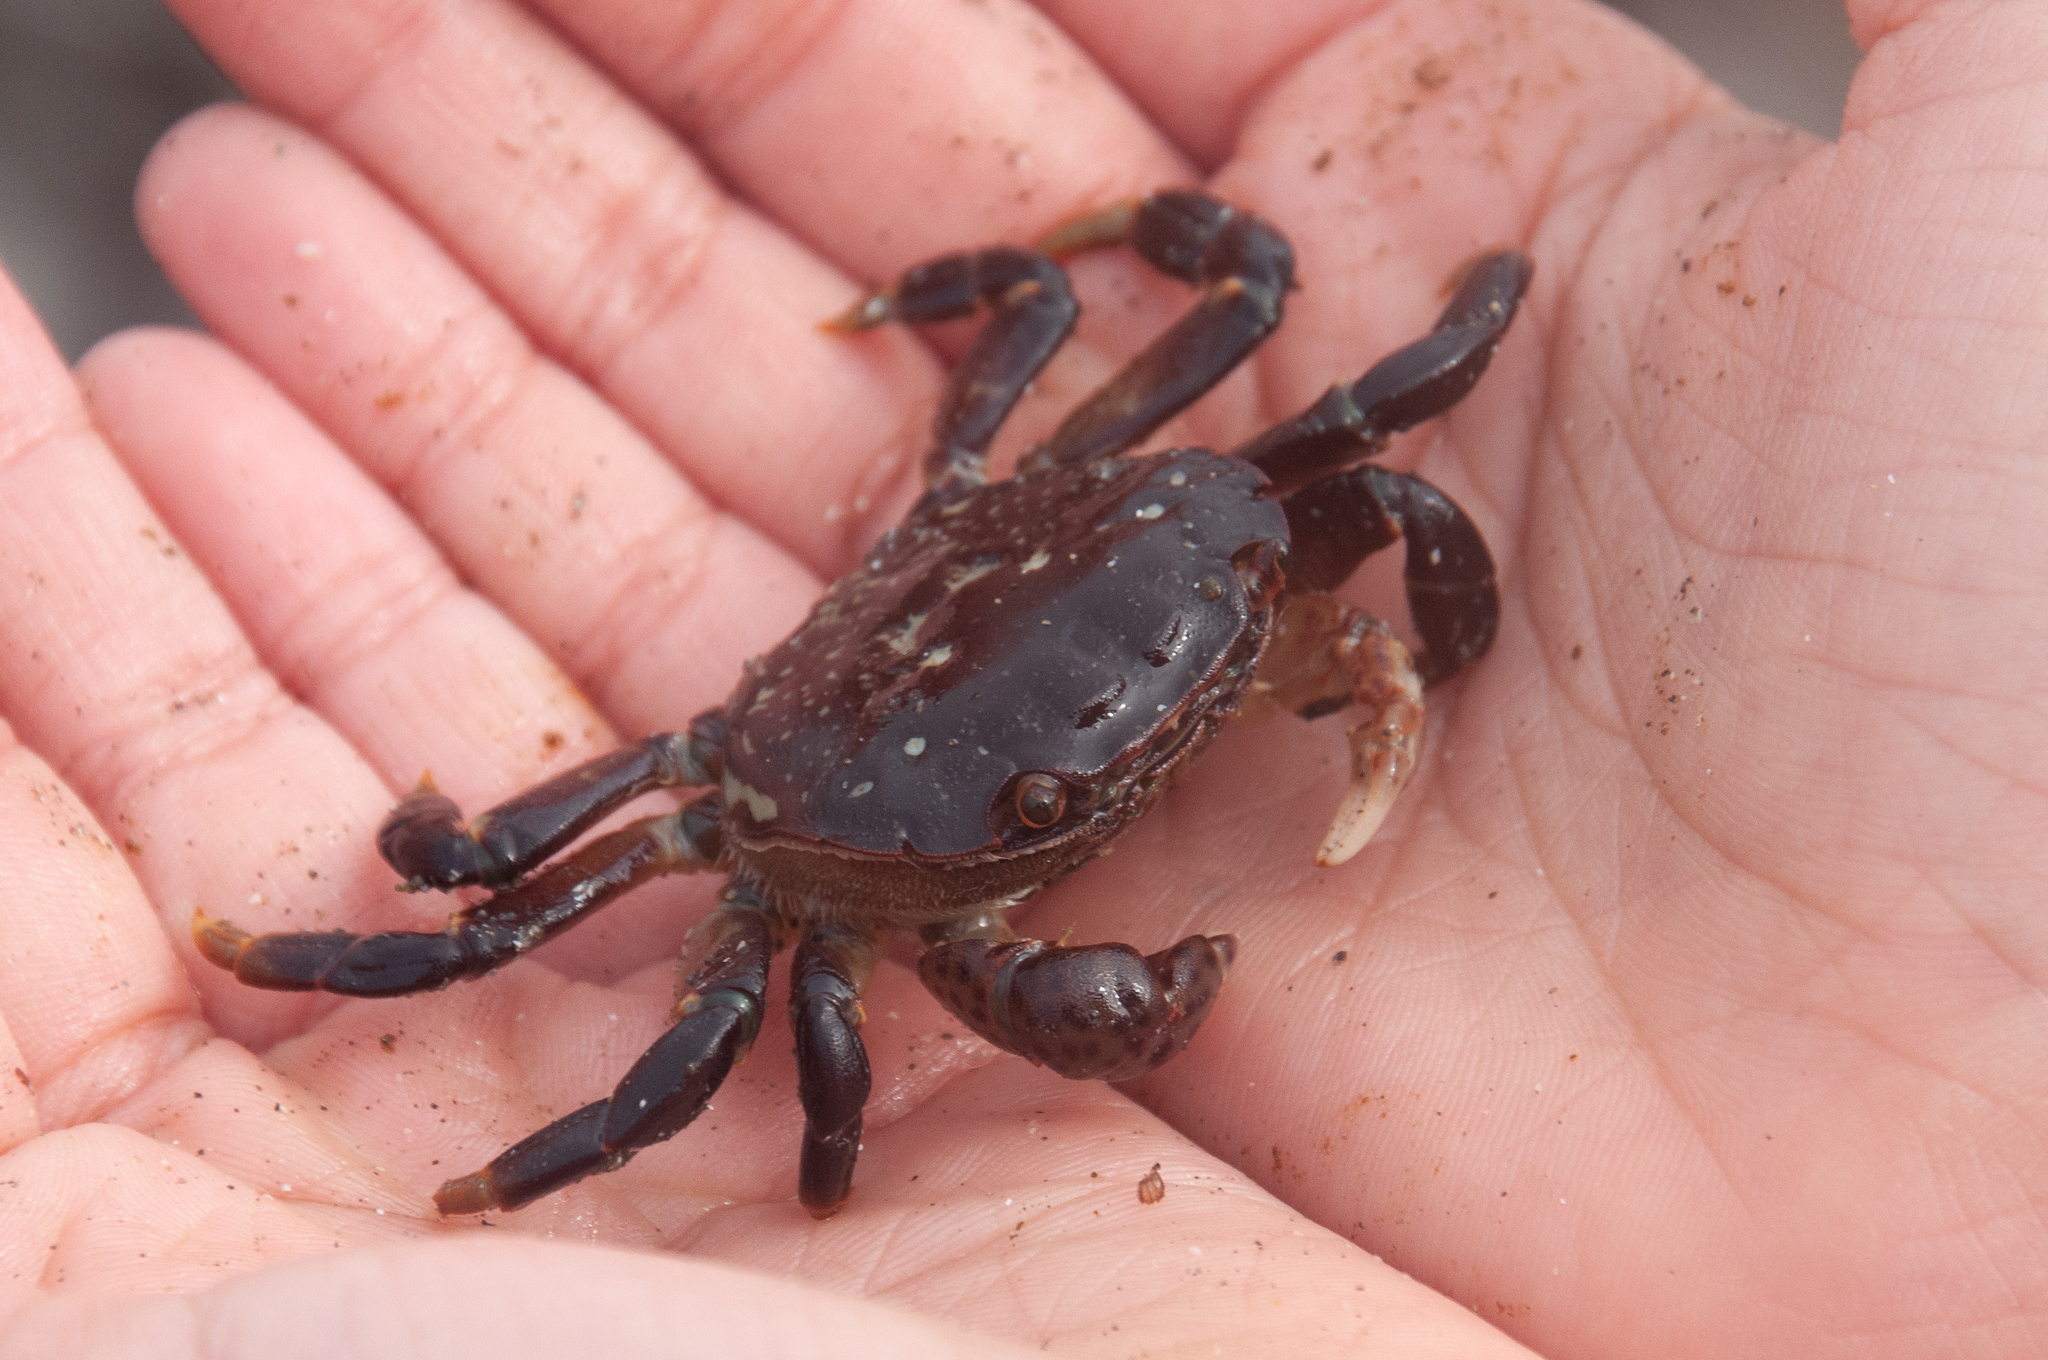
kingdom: Animalia
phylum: Arthropoda
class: Malacostraca
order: Decapoda
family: Varunidae
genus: Hemigrapsus
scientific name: Hemigrapsus nudus
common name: Purple shore crab
